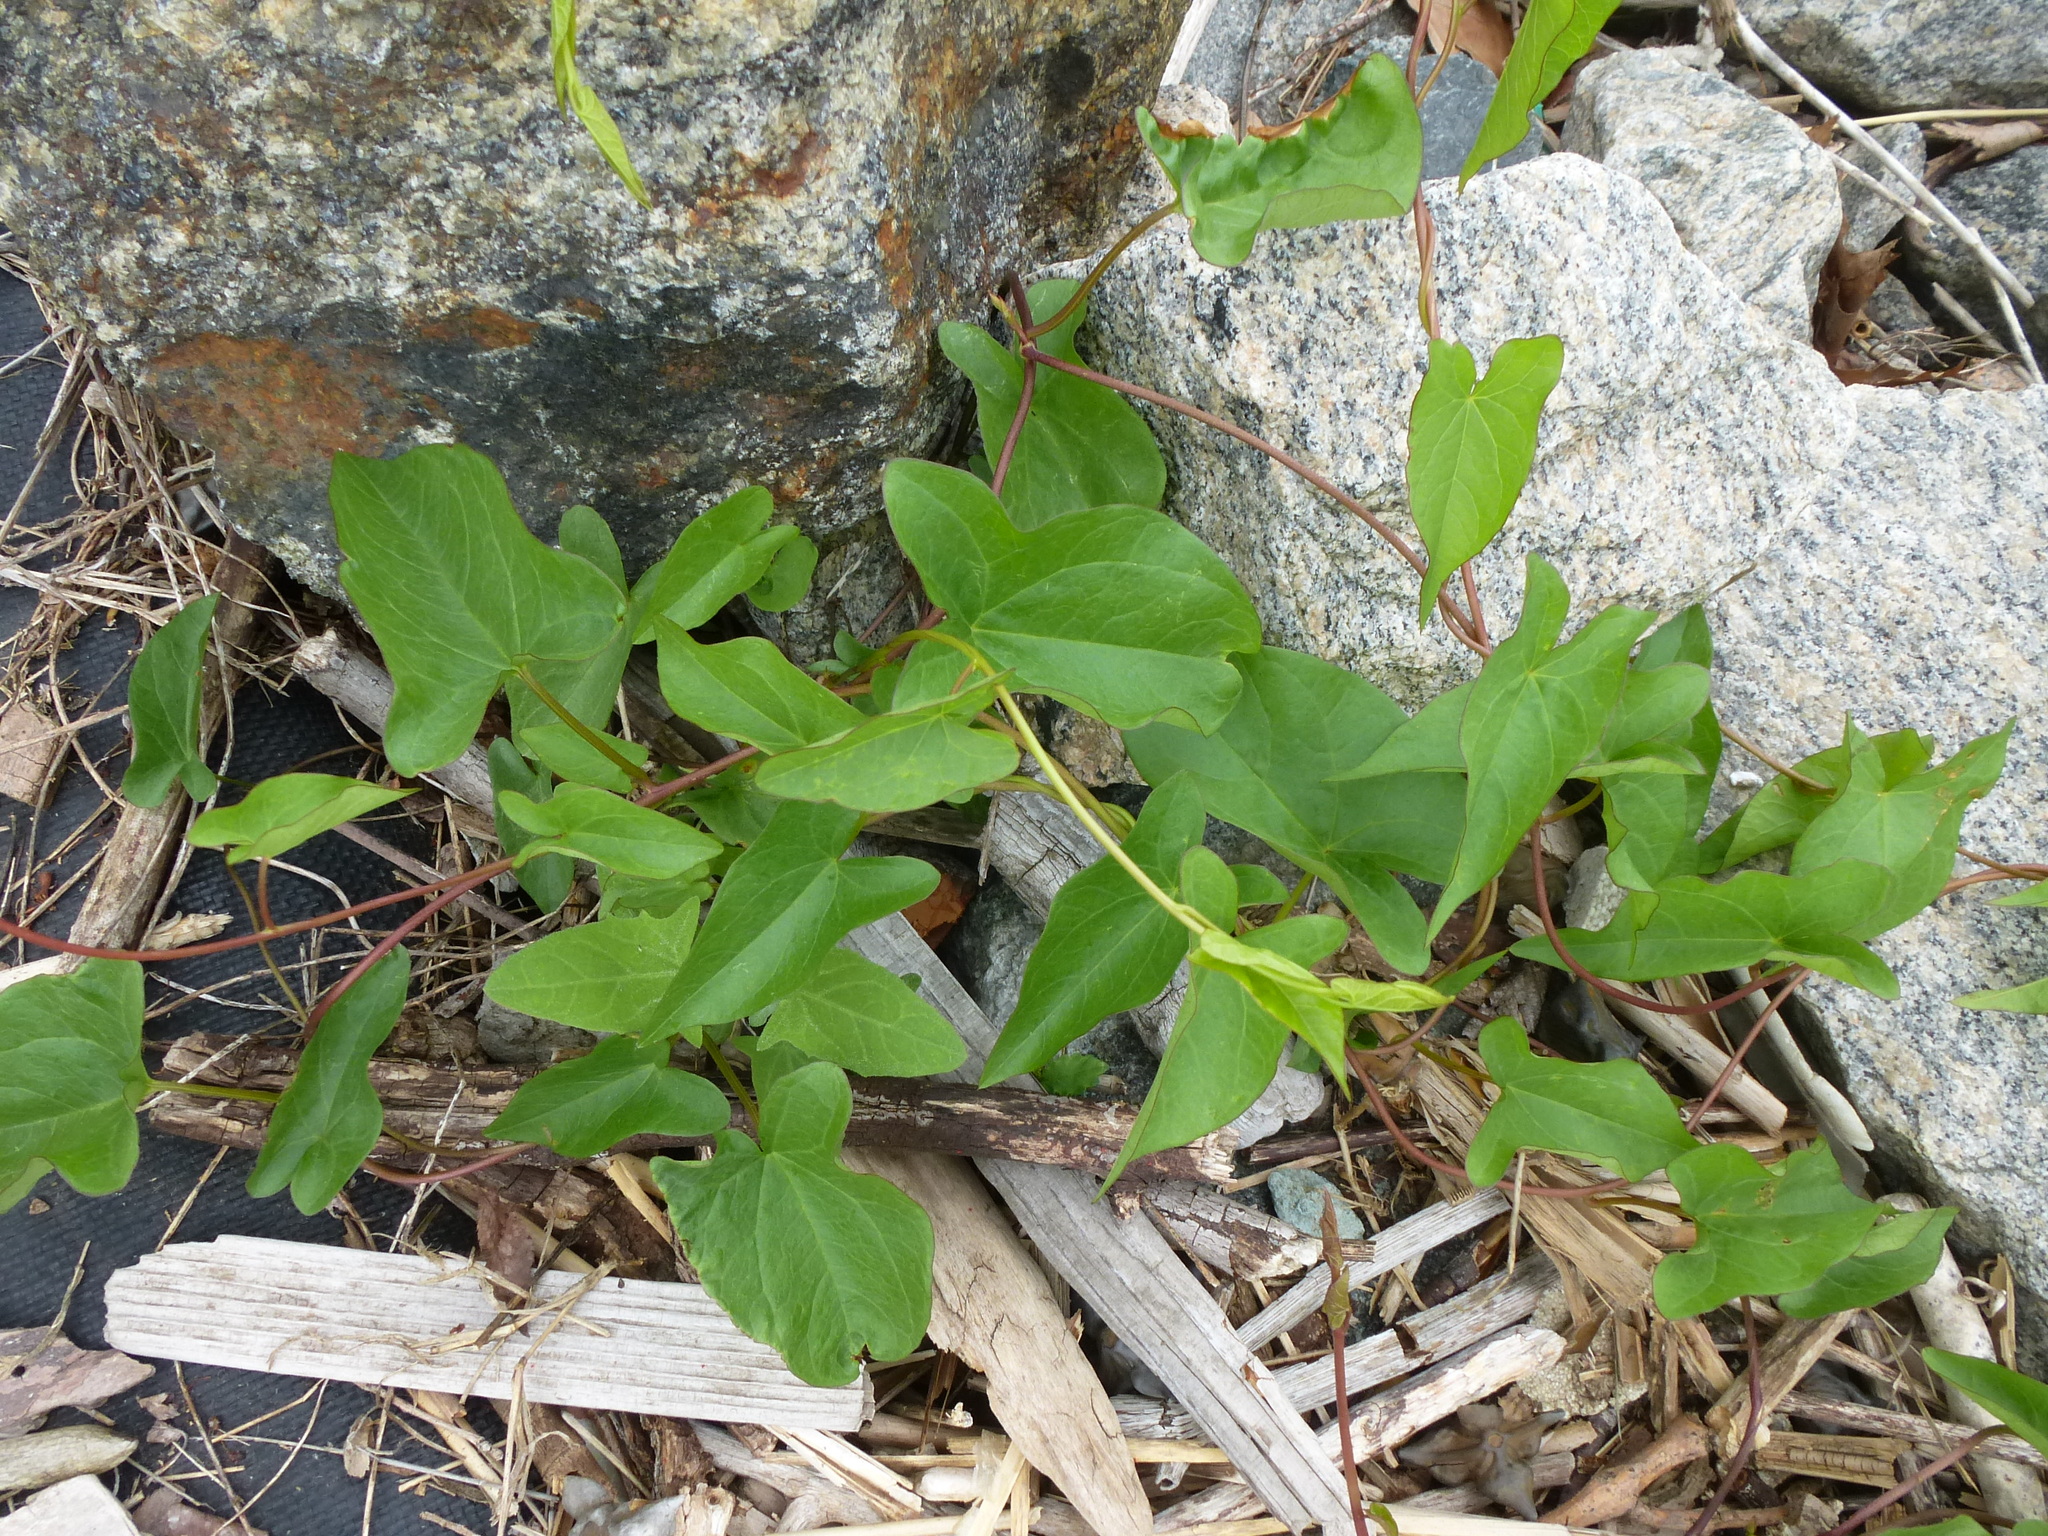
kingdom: Plantae
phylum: Tracheophyta
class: Magnoliopsida
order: Solanales
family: Convolvulaceae
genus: Calystegia
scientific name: Calystegia sepium
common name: Hedge bindweed
